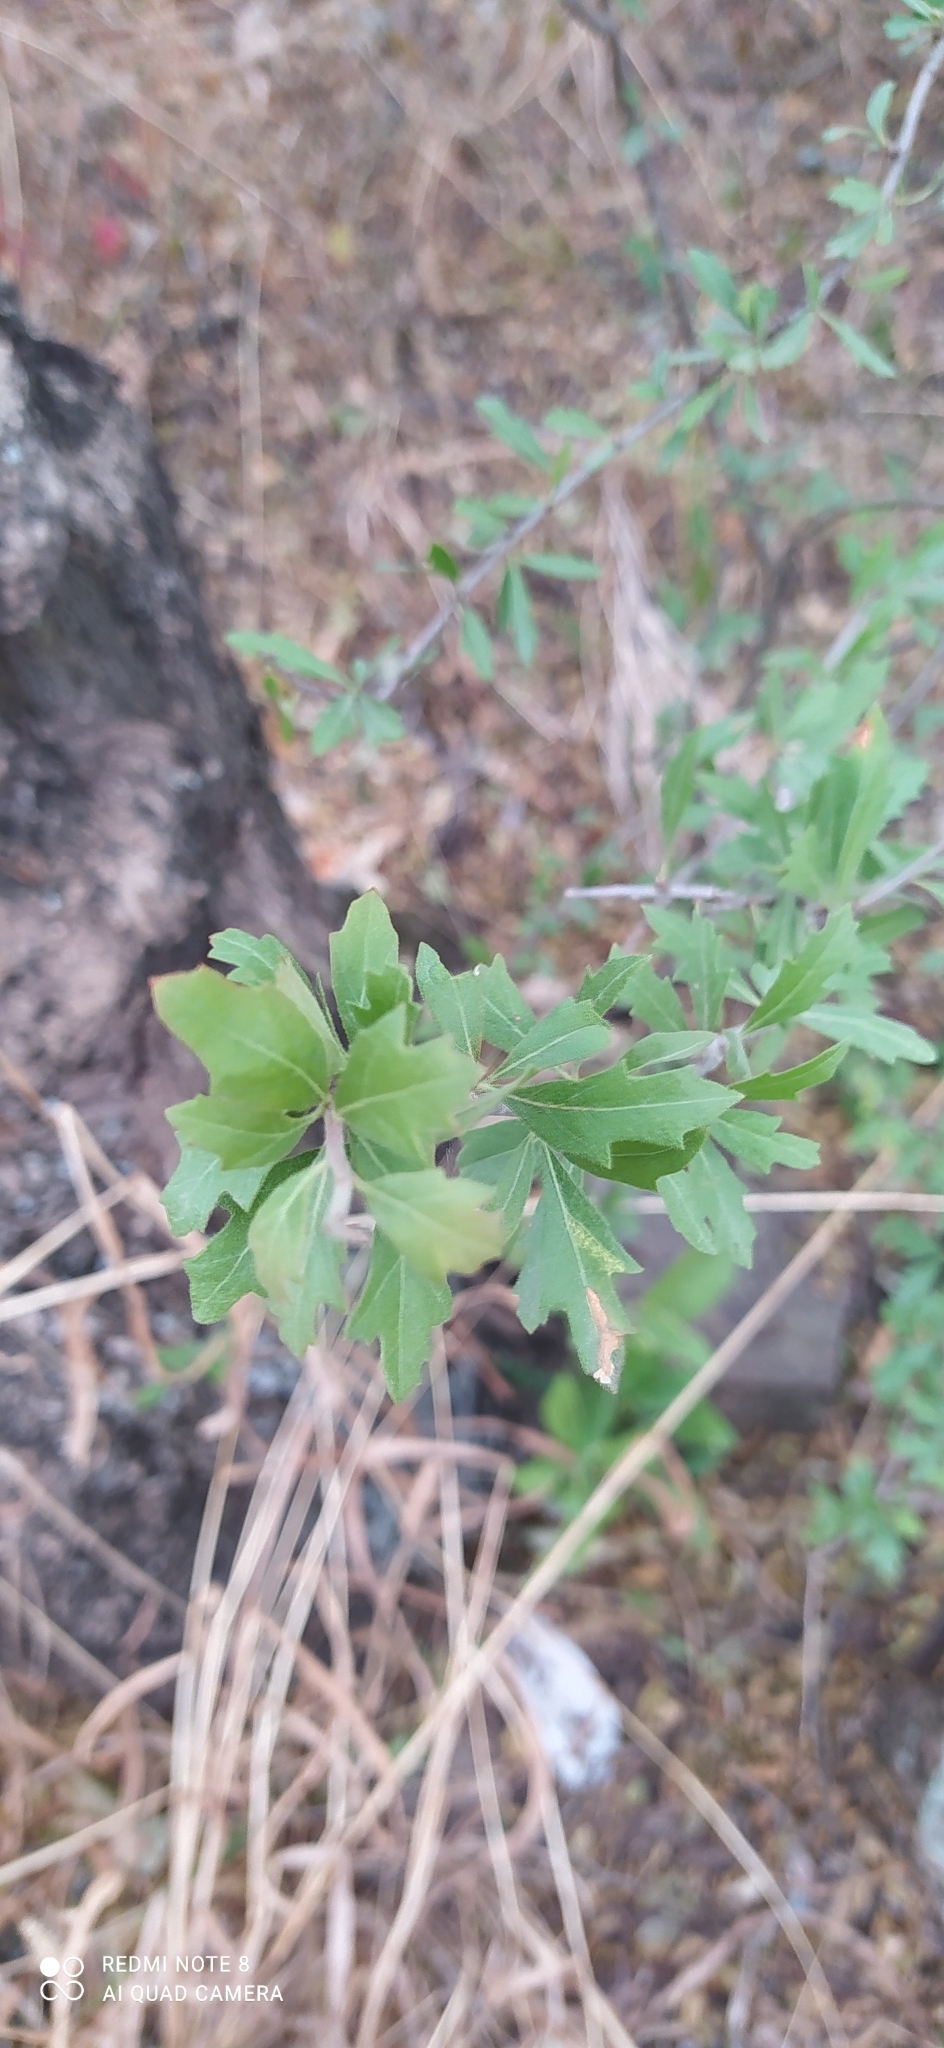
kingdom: Plantae
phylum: Tracheophyta
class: Magnoliopsida
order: Sapindales
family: Anacardiaceae
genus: Schinus
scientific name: Schinus fasciculata
